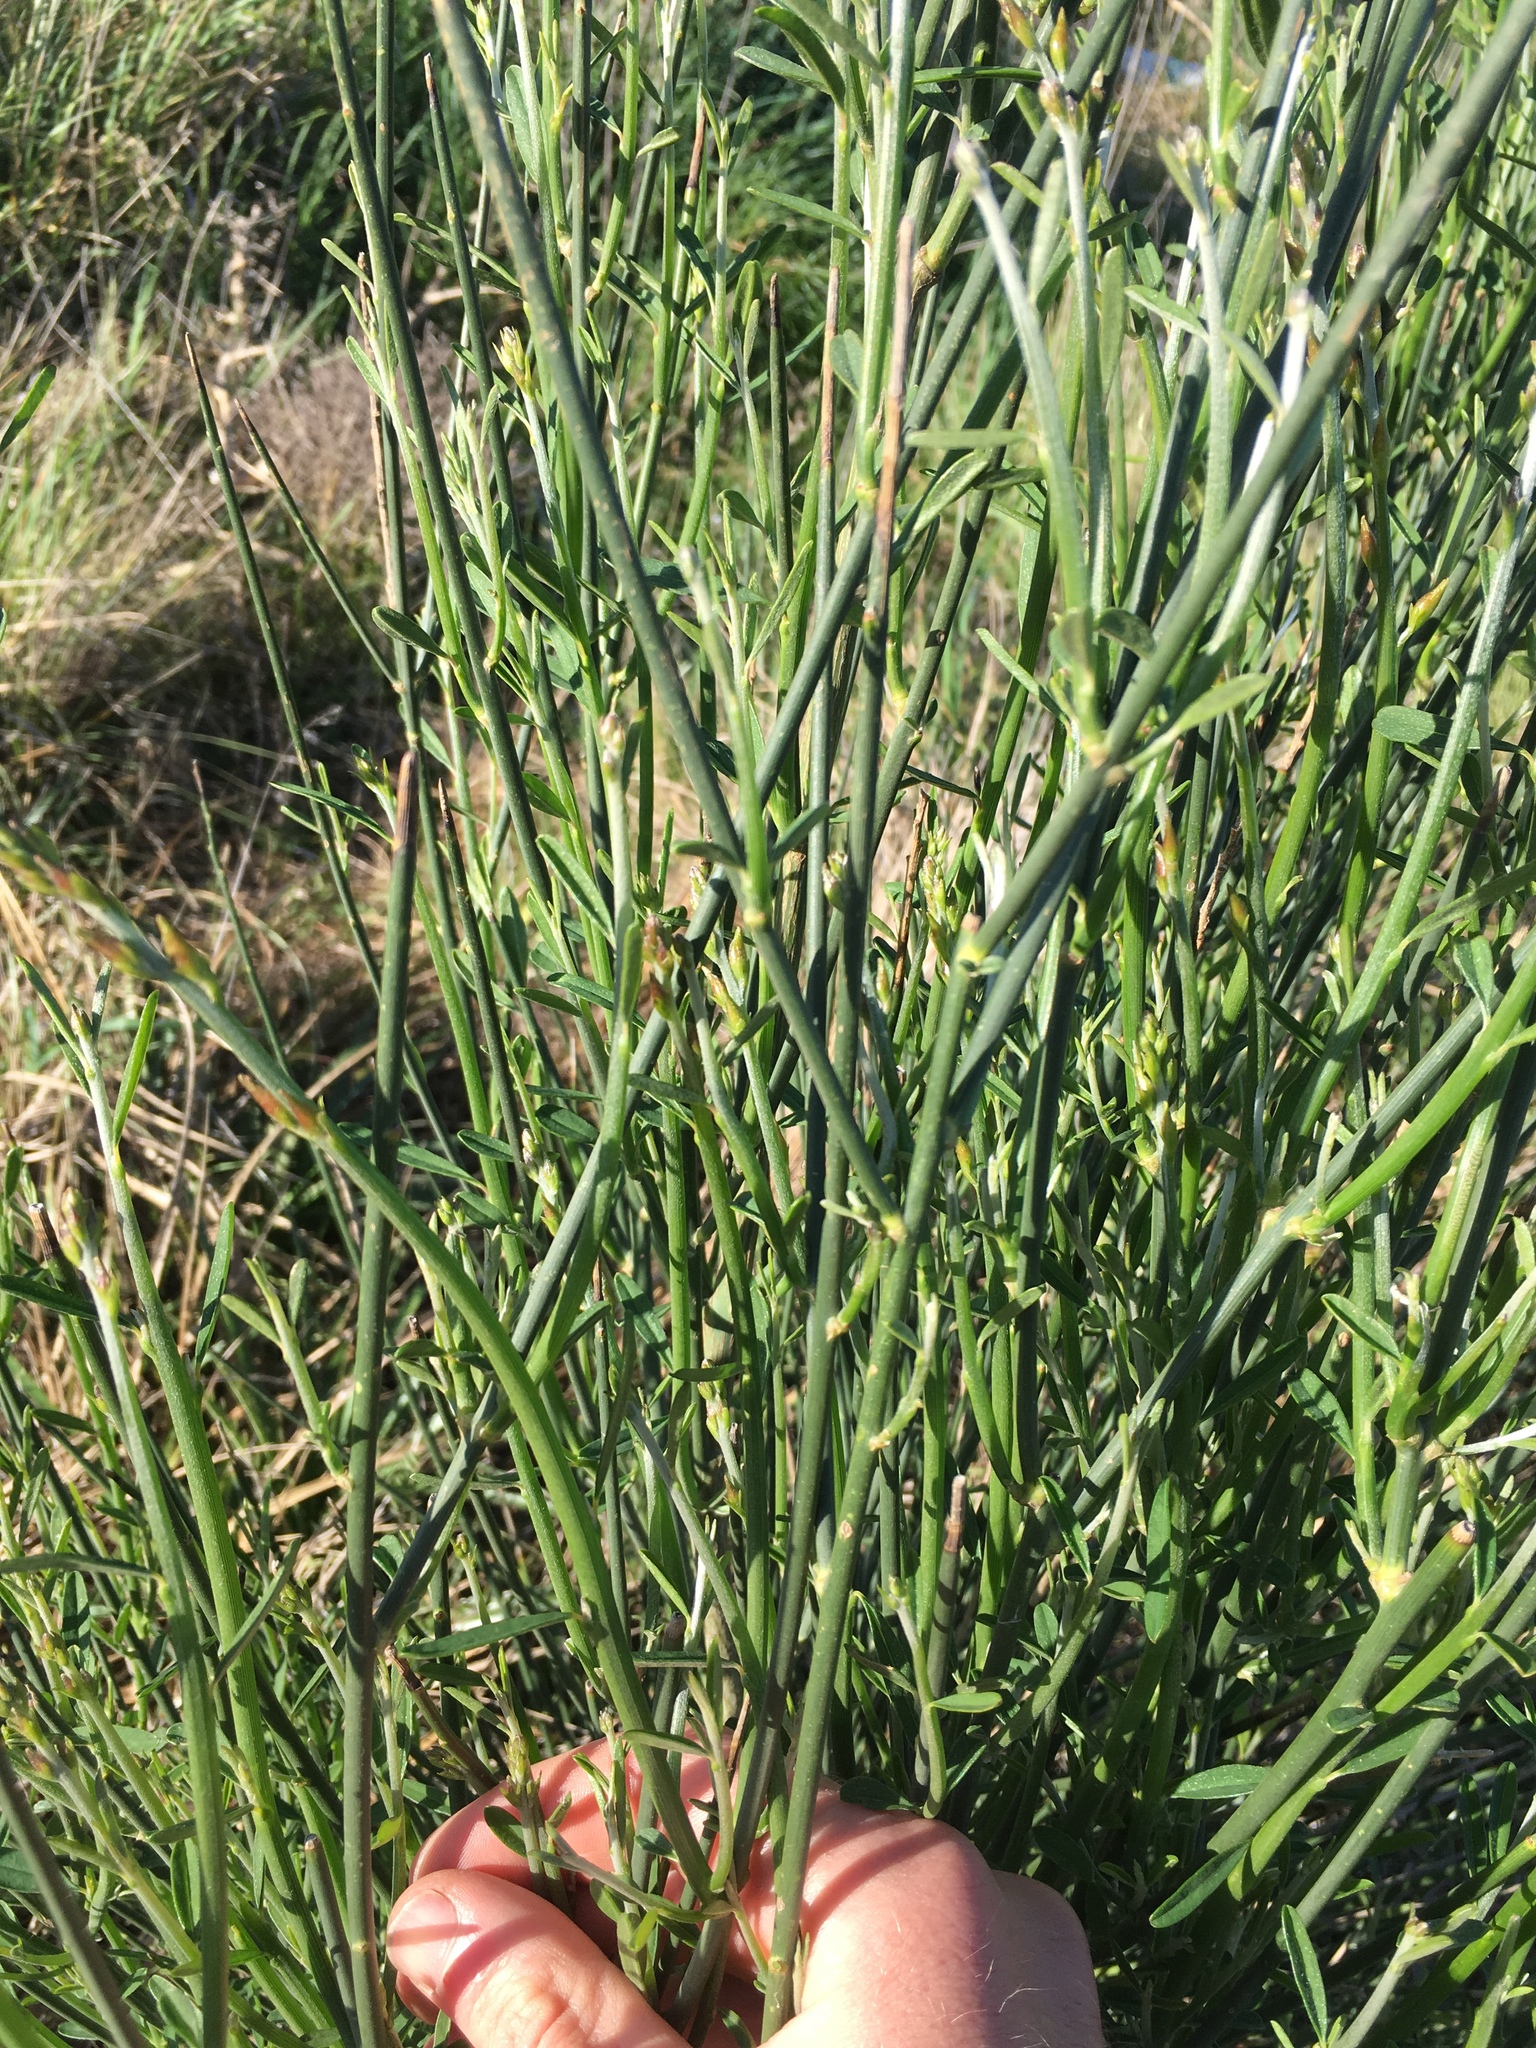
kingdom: Plantae
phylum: Tracheophyta
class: Magnoliopsida
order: Fabales
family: Fabaceae
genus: Spartium
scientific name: Spartium junceum
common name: Spanish broom
